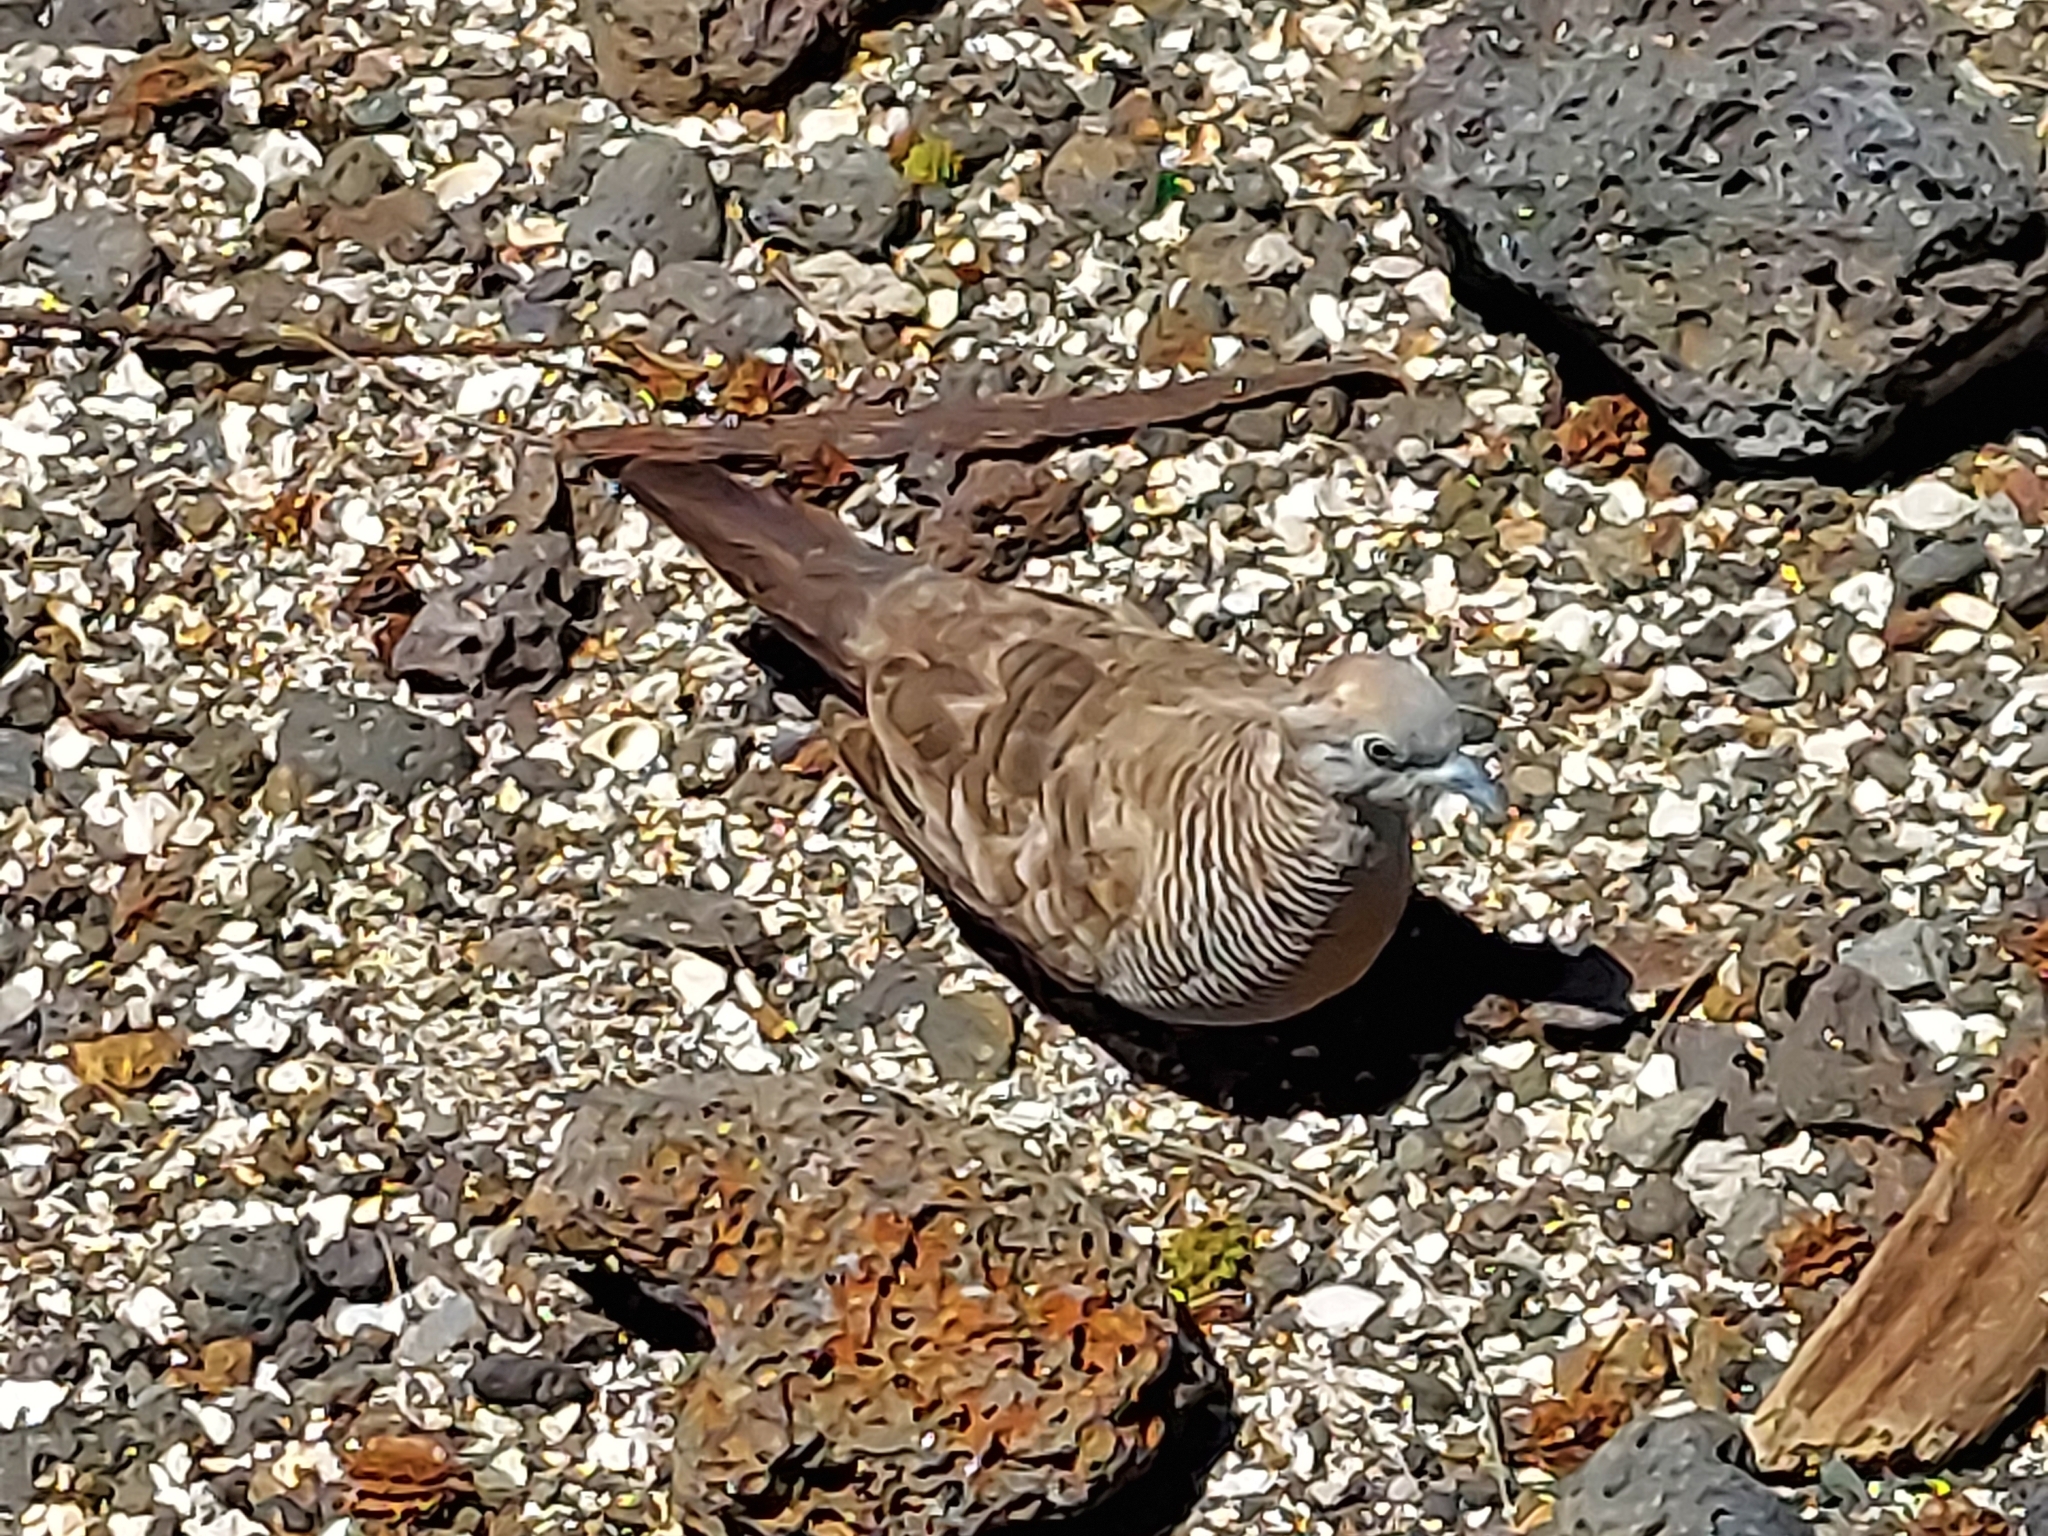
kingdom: Animalia
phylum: Chordata
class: Aves
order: Columbiformes
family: Columbidae
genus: Geopelia
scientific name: Geopelia striata
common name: Zebra dove
